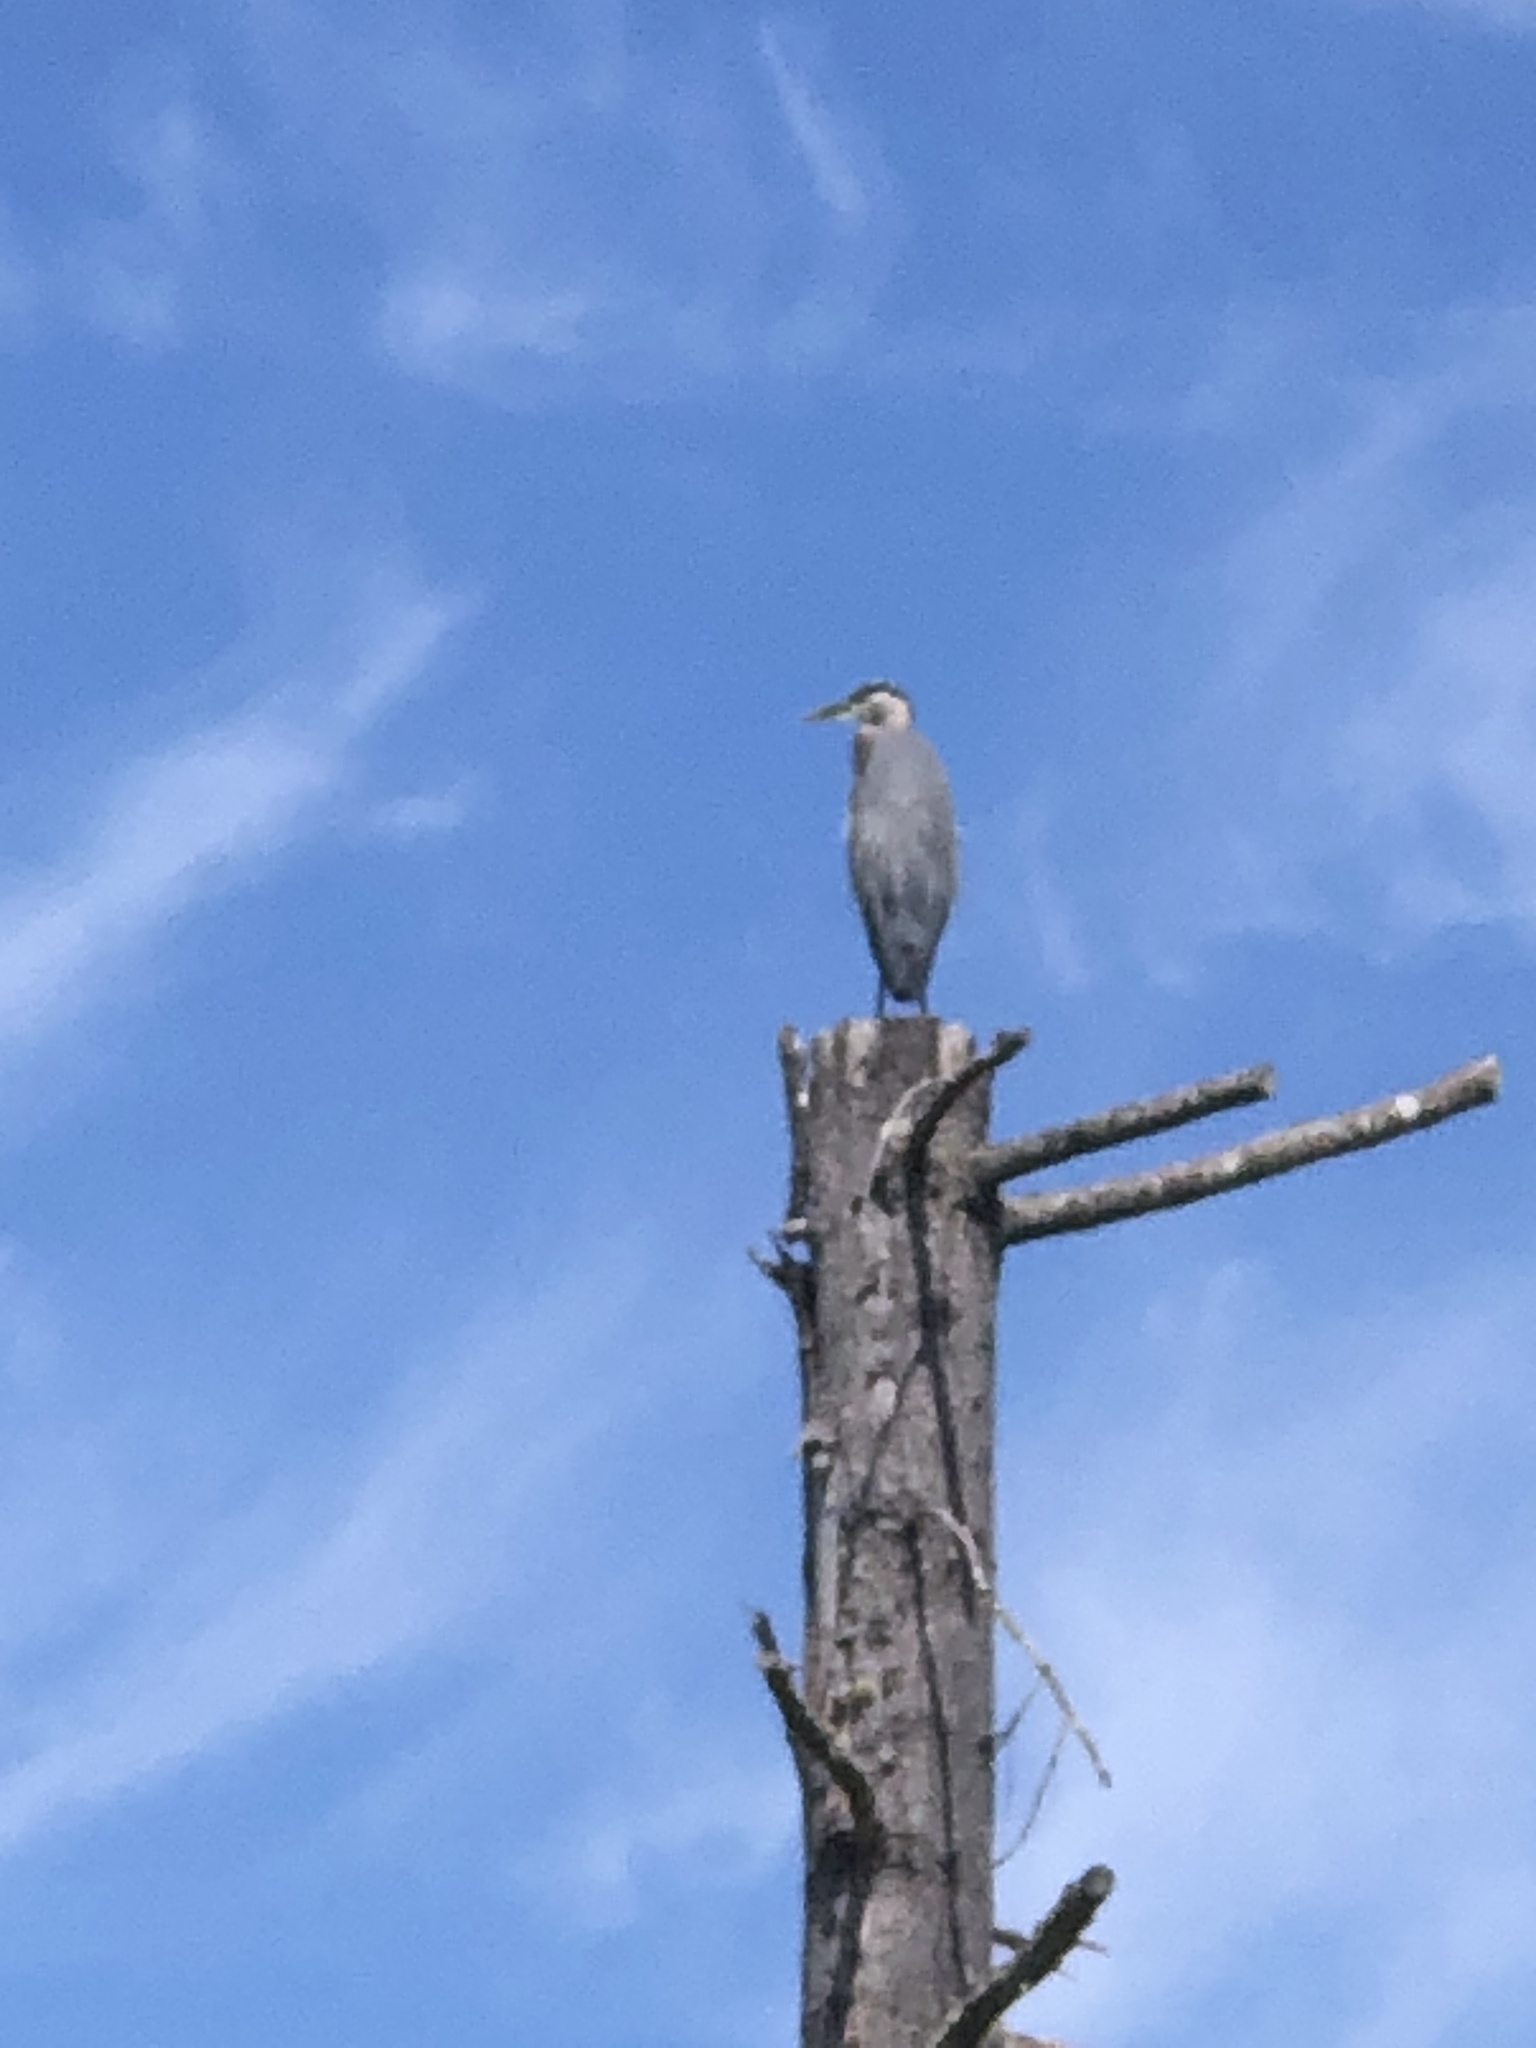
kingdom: Animalia
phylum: Chordata
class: Aves
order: Pelecaniformes
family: Ardeidae
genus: Ardea
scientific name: Ardea herodias
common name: Great blue heron
